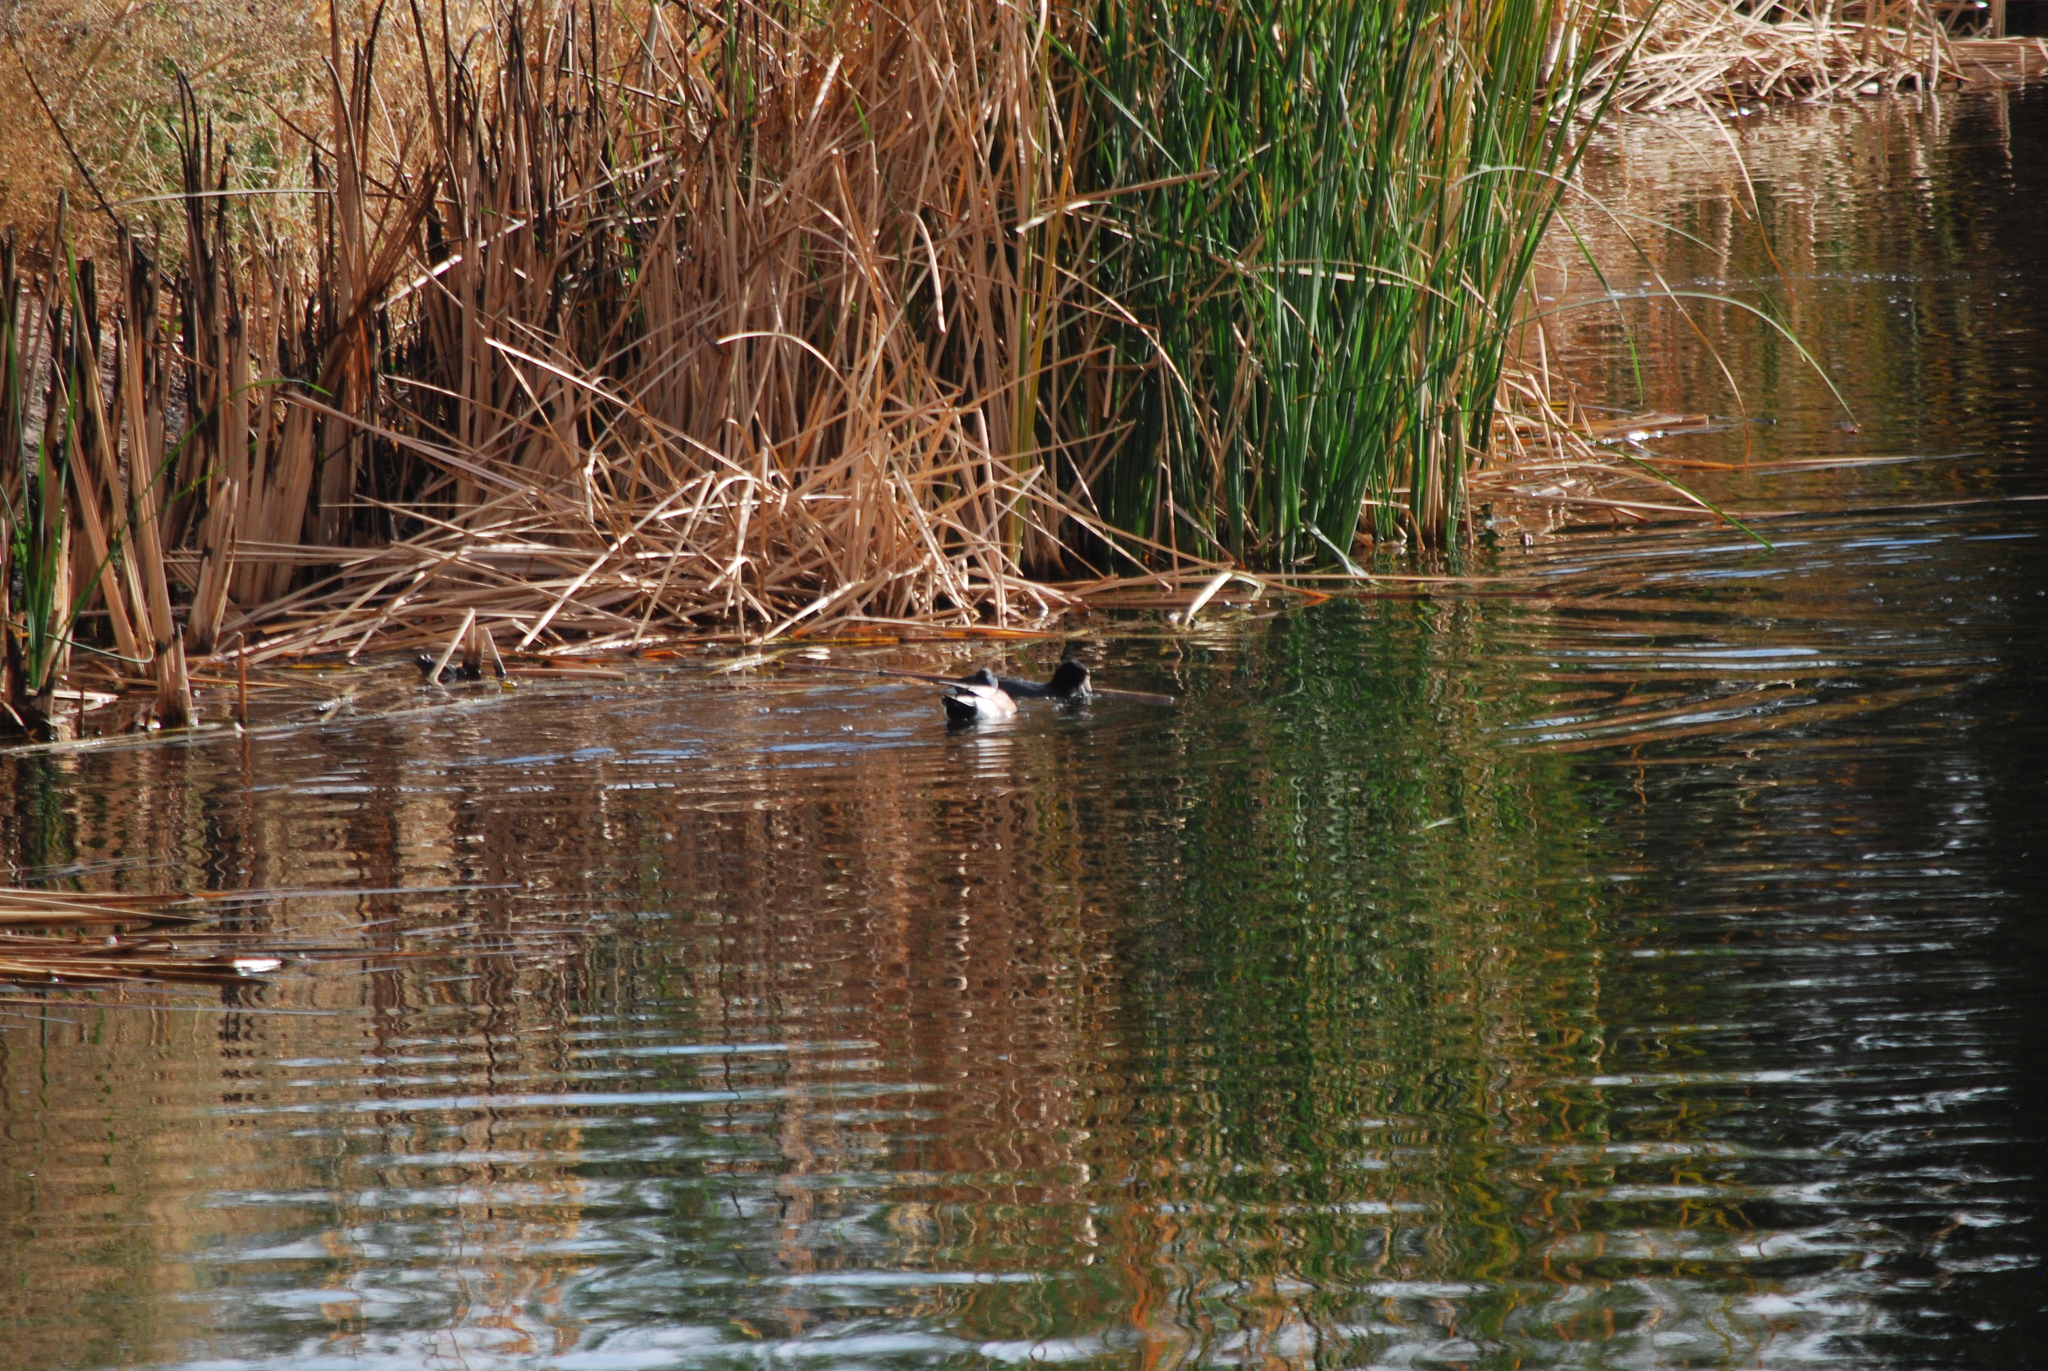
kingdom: Animalia
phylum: Chordata
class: Aves
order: Anseriformes
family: Anatidae
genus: Mareca
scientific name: Mareca americana
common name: American wigeon
